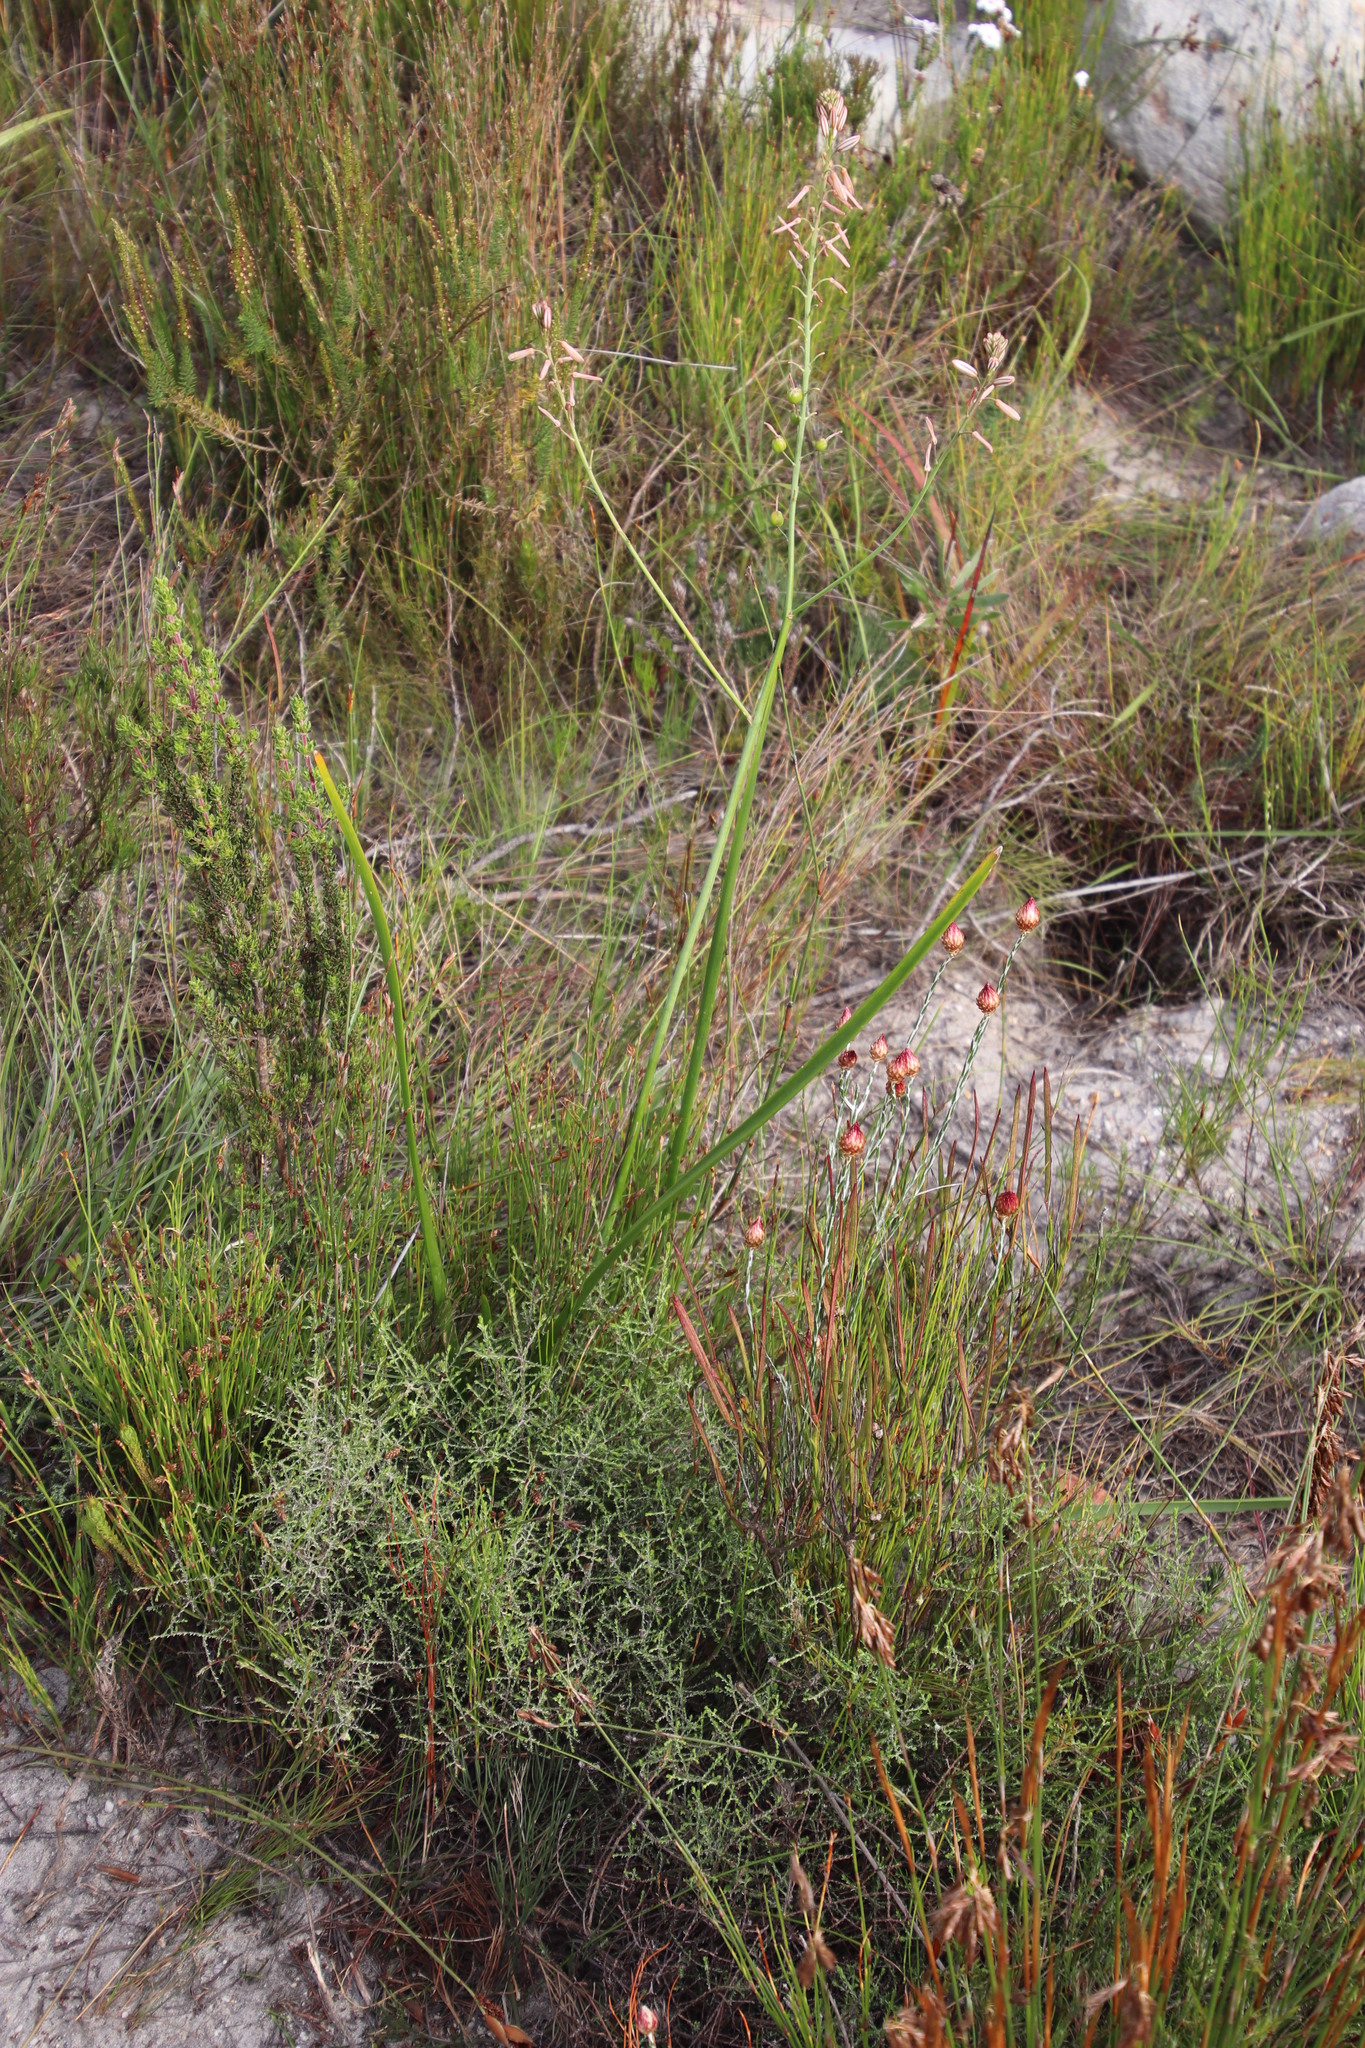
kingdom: Plantae
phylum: Tracheophyta
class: Liliopsida
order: Asparagales
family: Asphodelaceae
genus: Trachyandra
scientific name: Trachyandra tabularis
